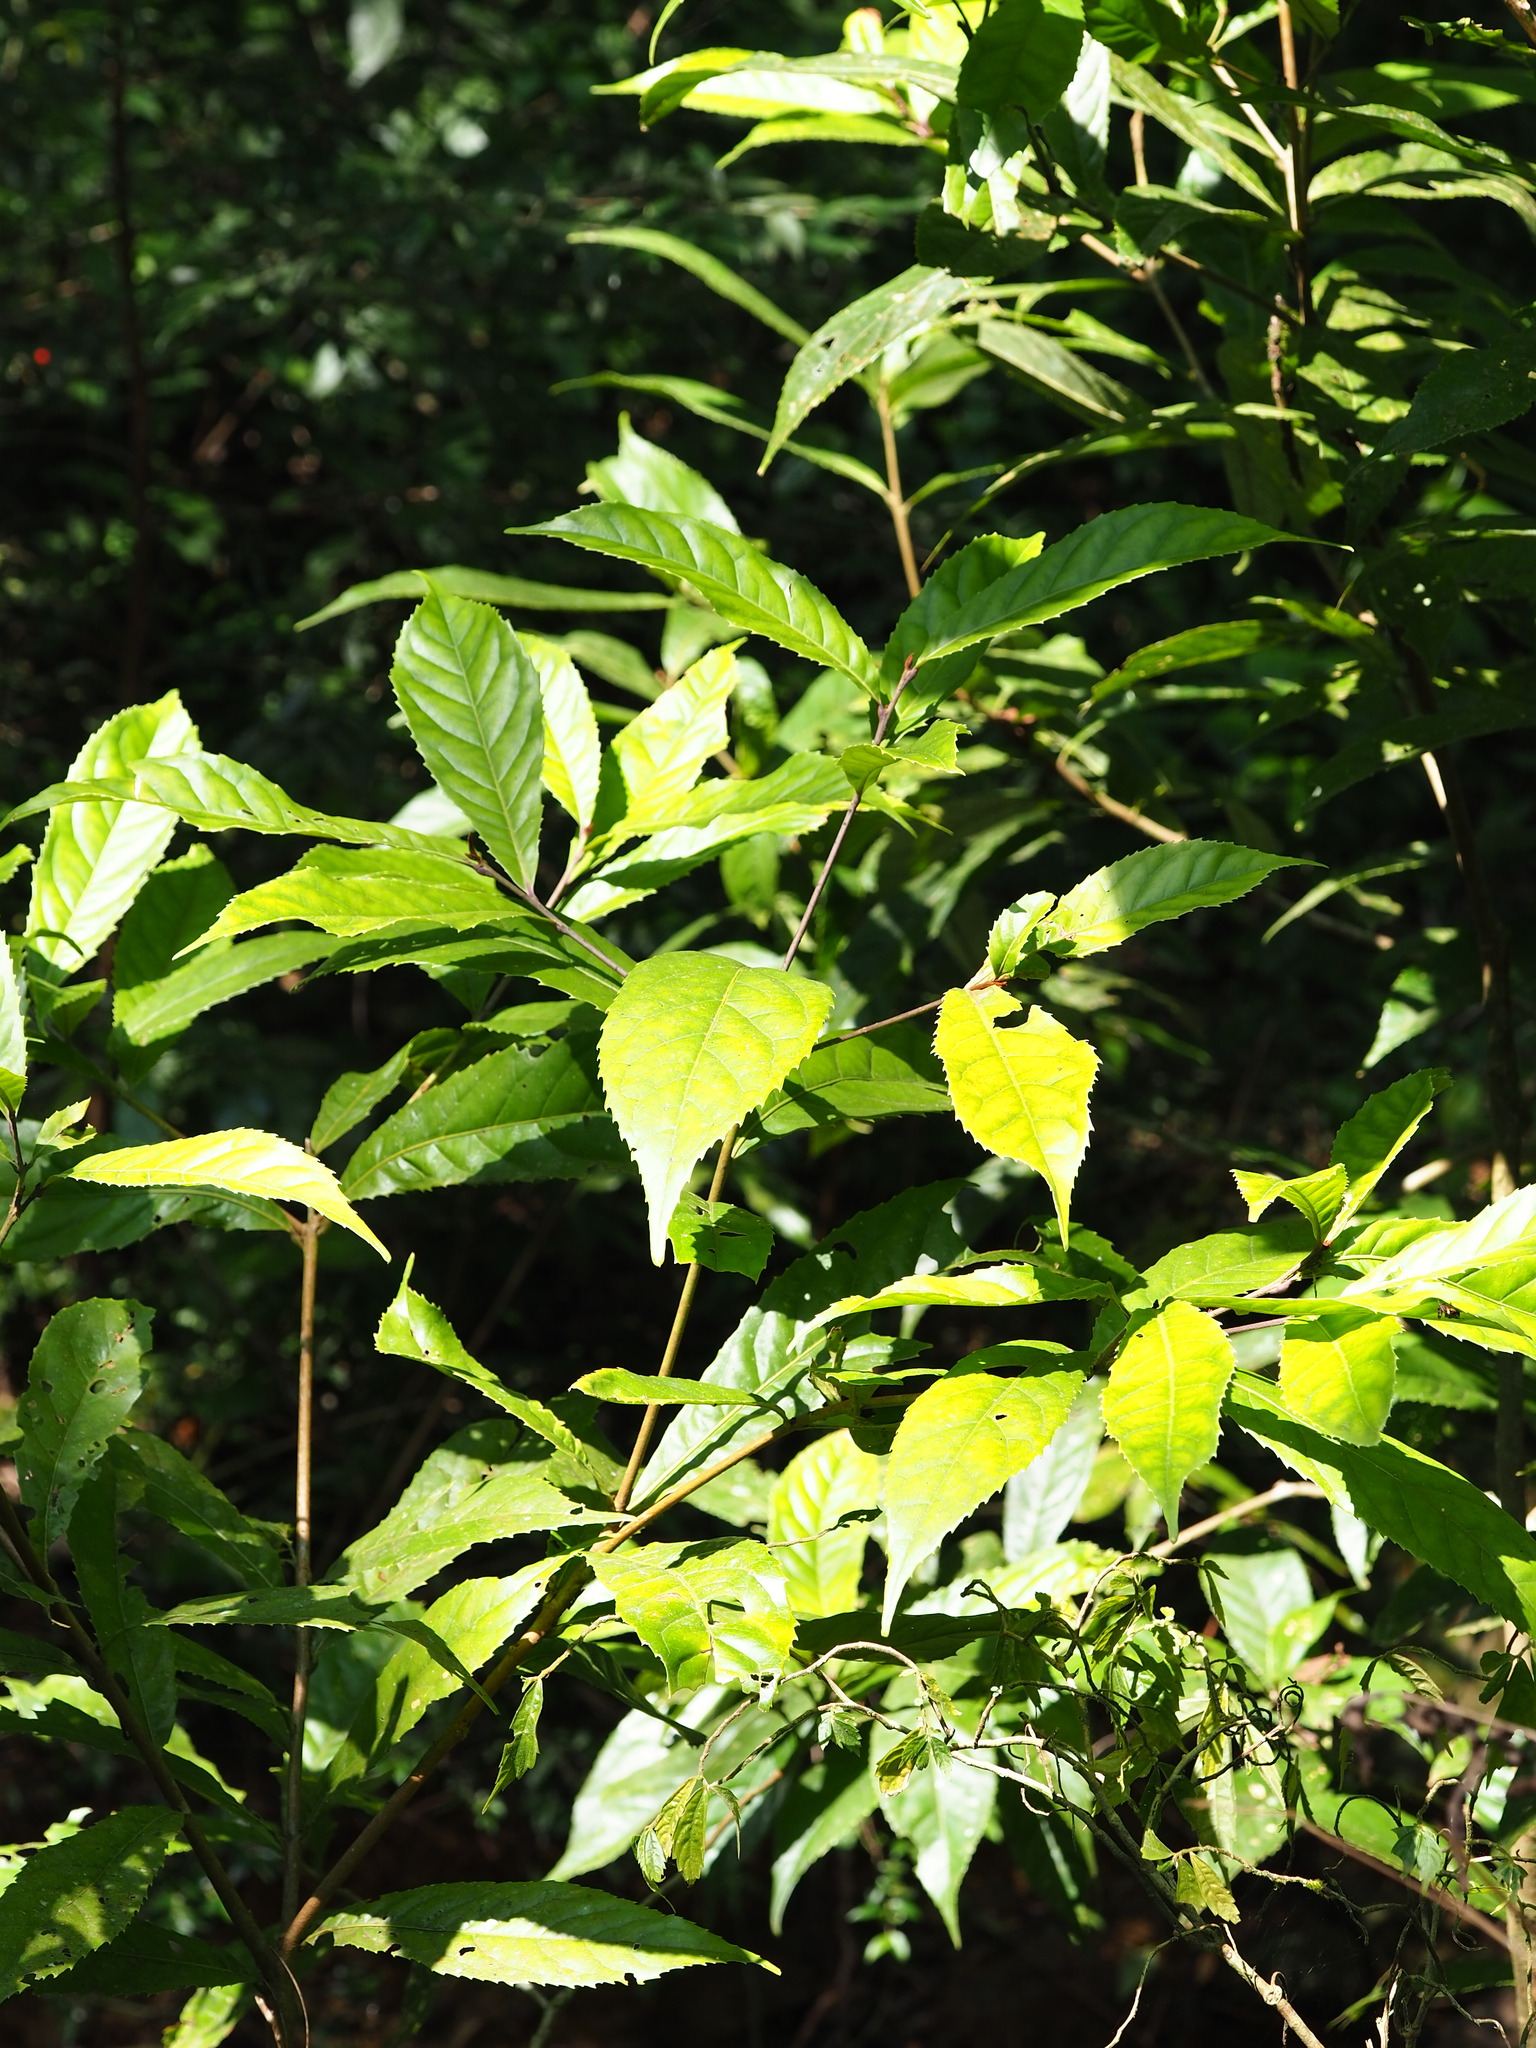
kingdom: Plantae
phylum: Tracheophyta
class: Magnoliopsida
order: Proteales
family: Proteaceae
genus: Helicia
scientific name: Helicia formosana
